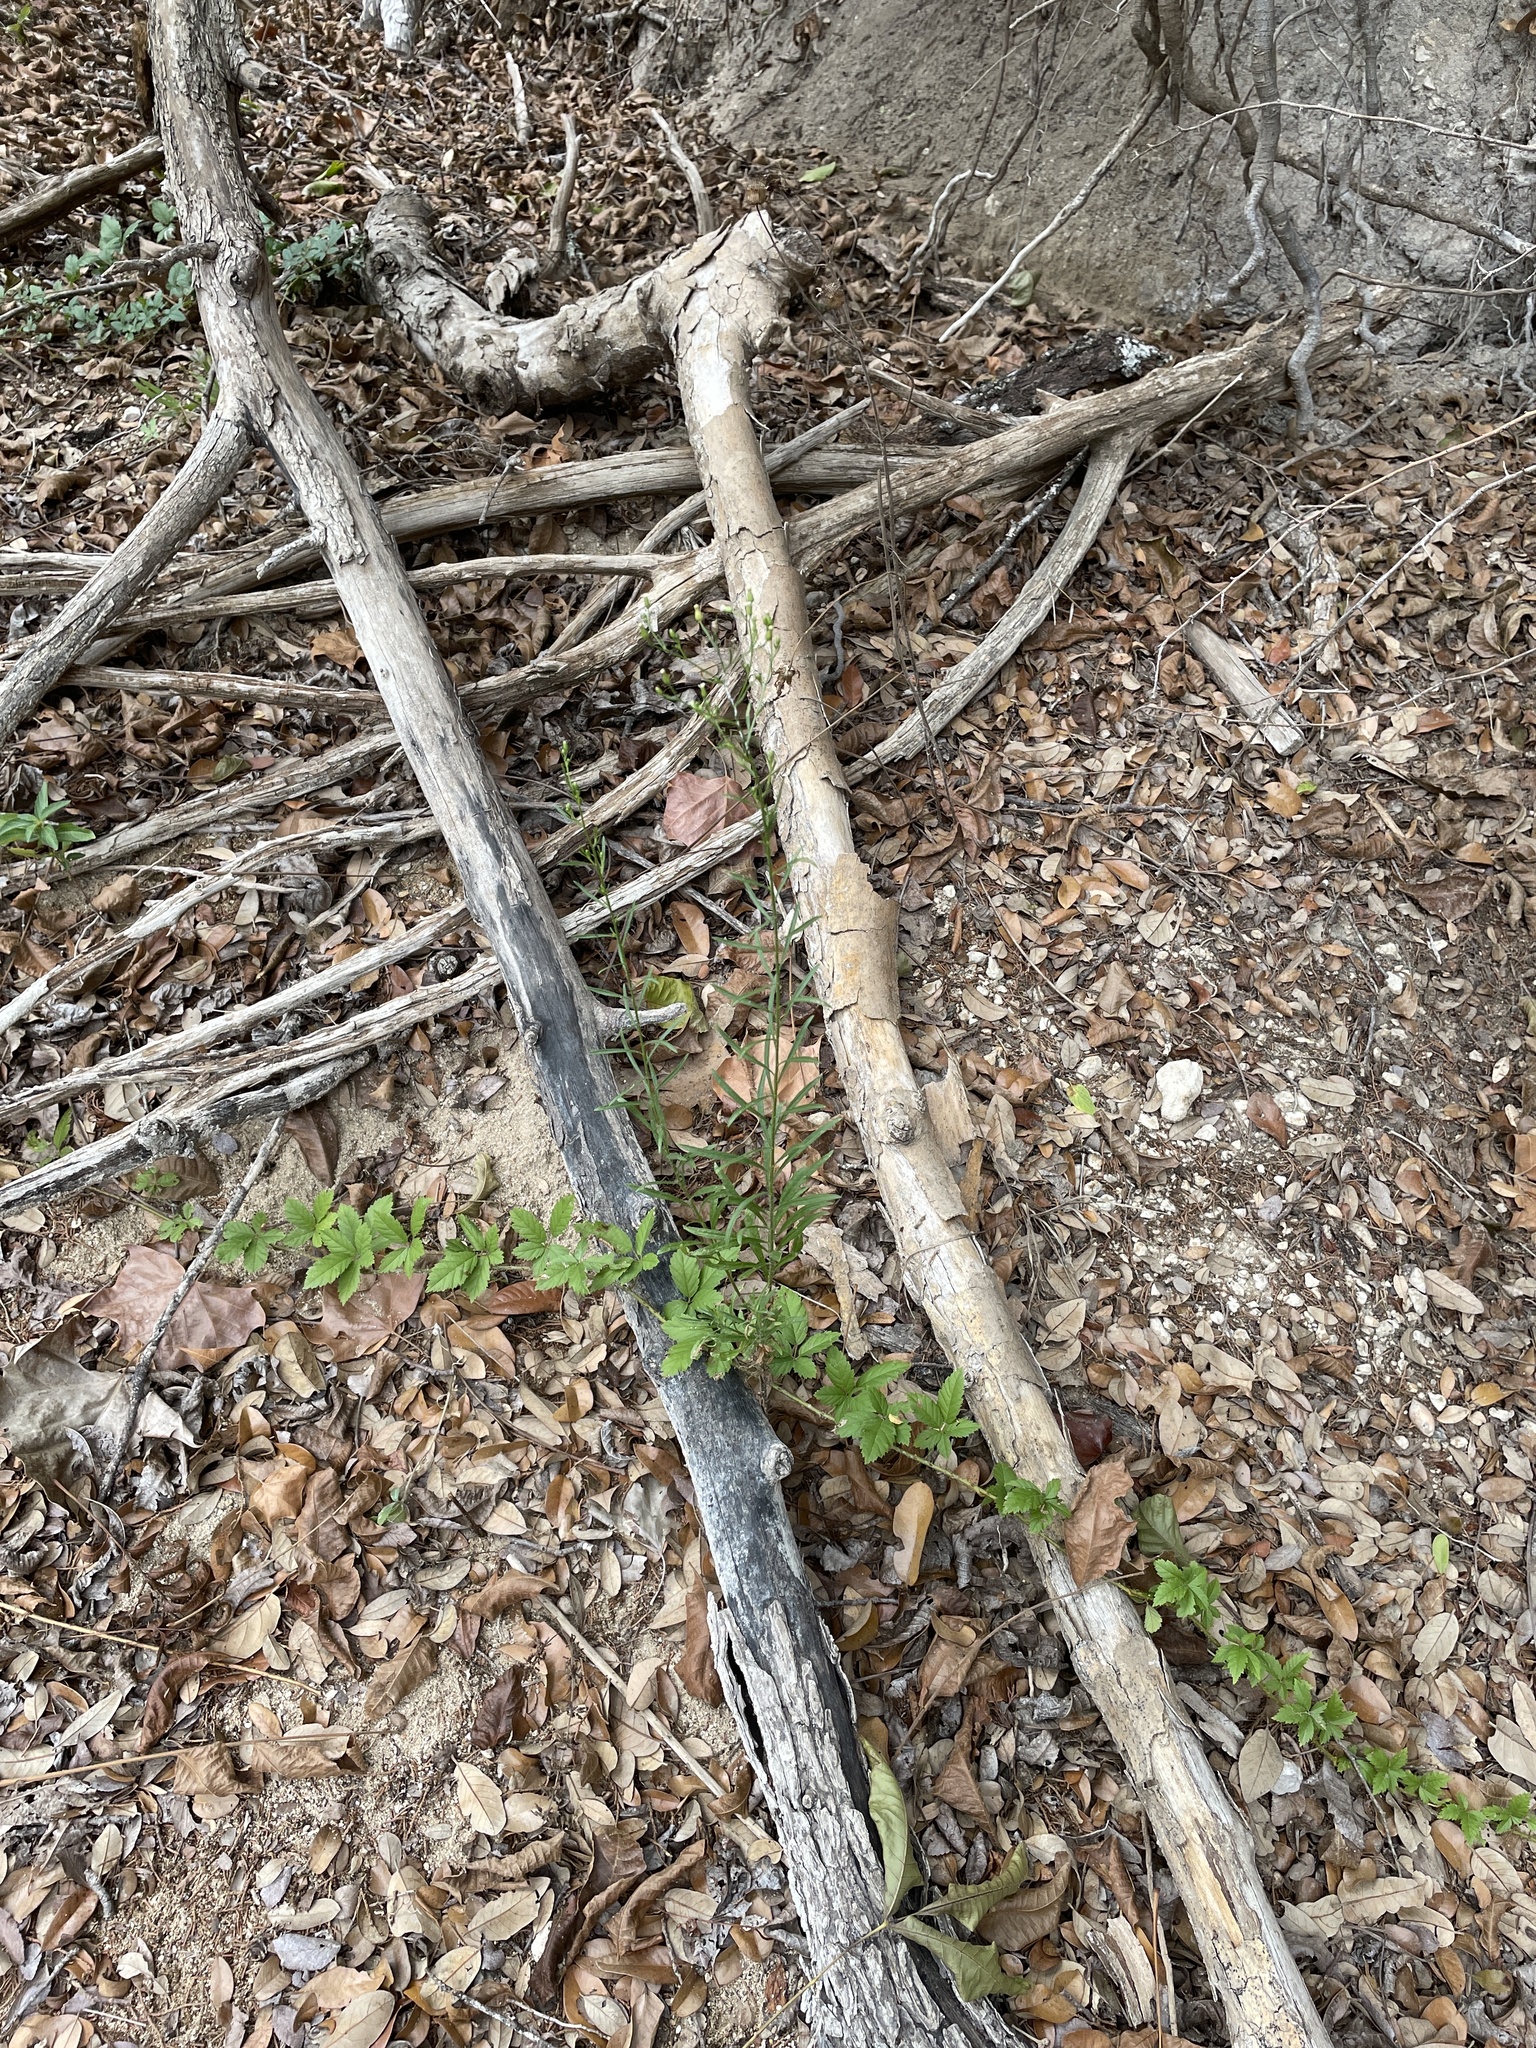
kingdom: Plantae
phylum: Tracheophyta
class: Magnoliopsida
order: Asterales
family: Asteraceae
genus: Erigeron
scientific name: Erigeron canadensis
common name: Canadian fleabane
